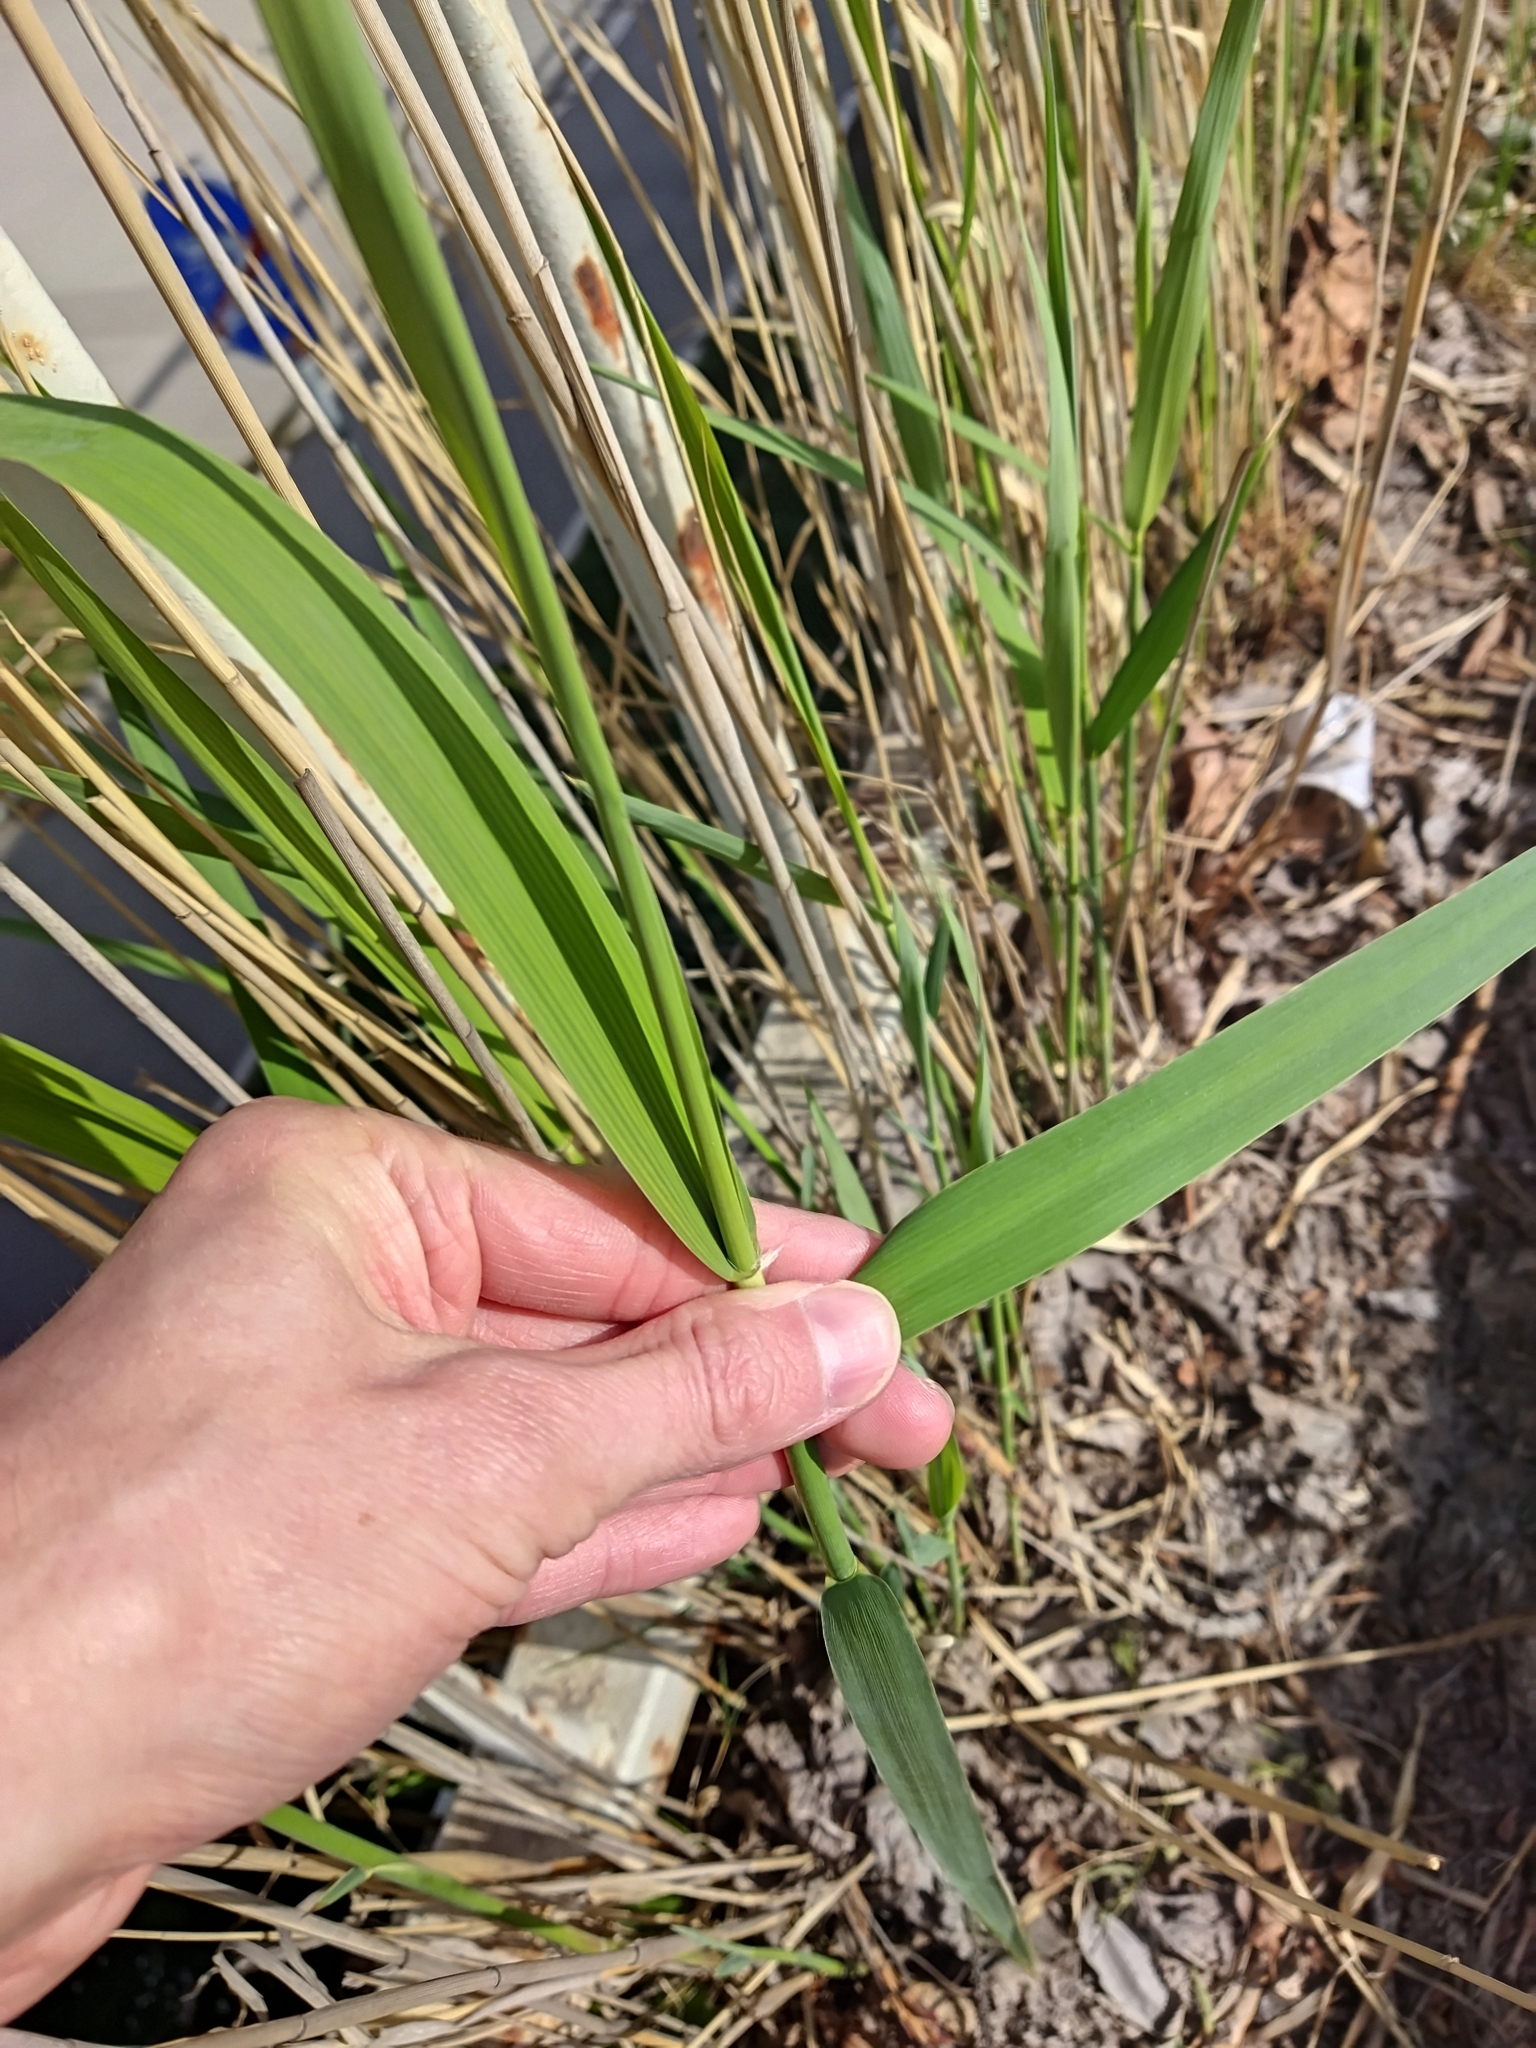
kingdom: Plantae
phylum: Tracheophyta
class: Liliopsida
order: Poales
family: Poaceae
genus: Phragmites
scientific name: Phragmites australis
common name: Common reed
